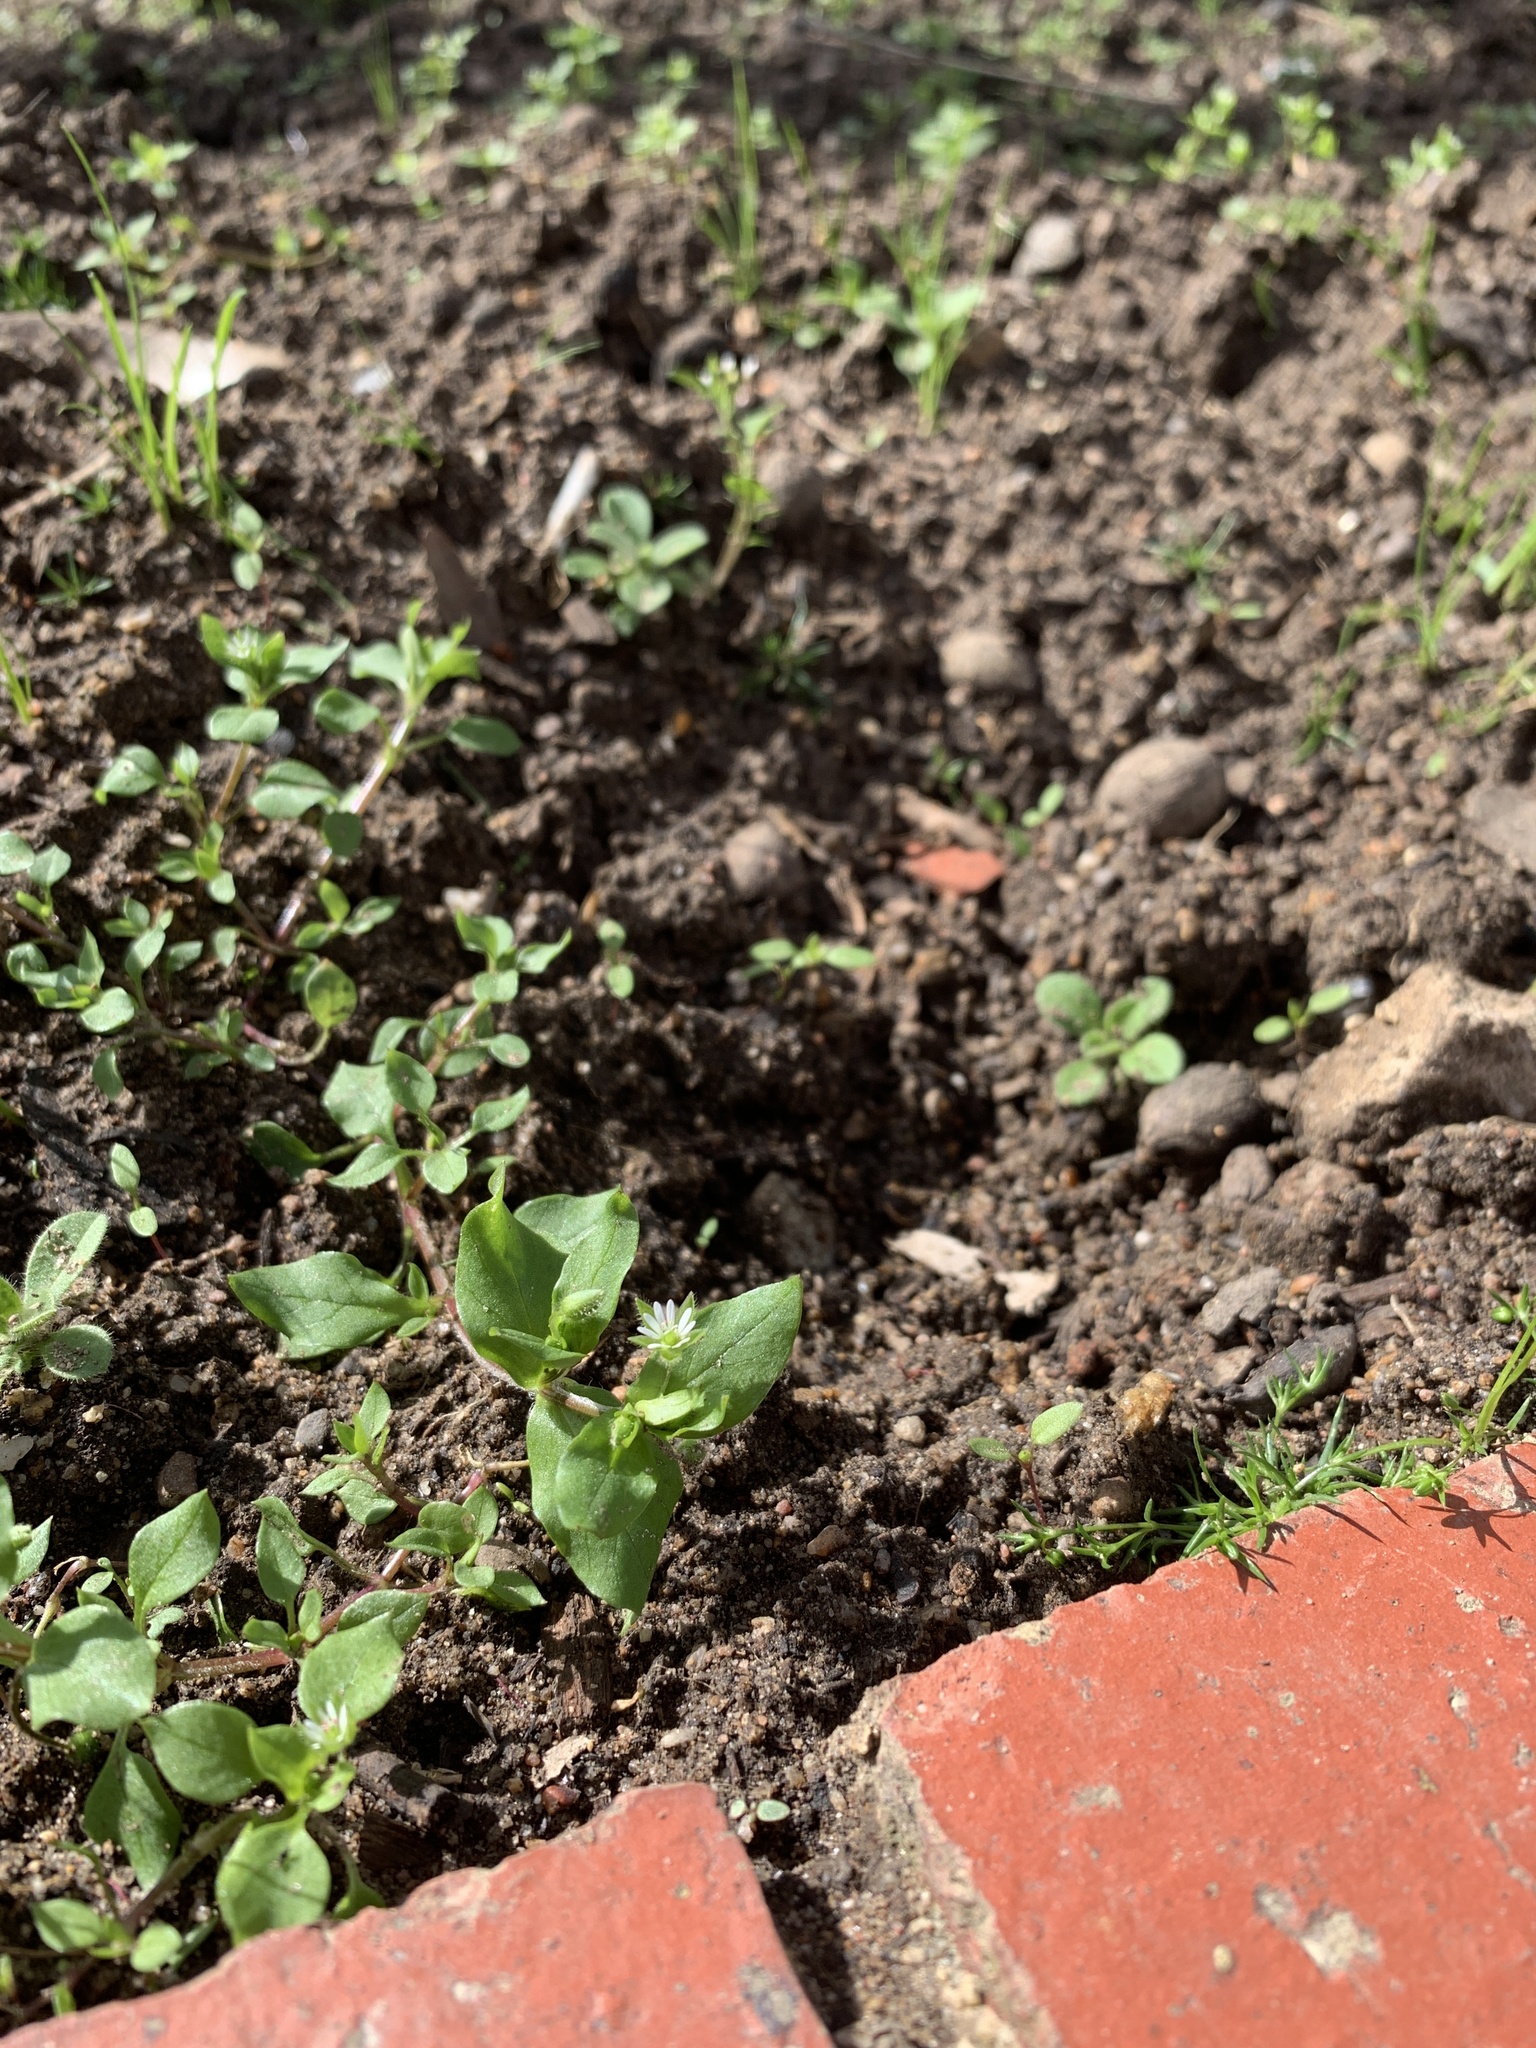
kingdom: Plantae
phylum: Tracheophyta
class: Magnoliopsida
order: Caryophyllales
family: Caryophyllaceae
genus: Stellaria
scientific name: Stellaria media
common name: Common chickweed
